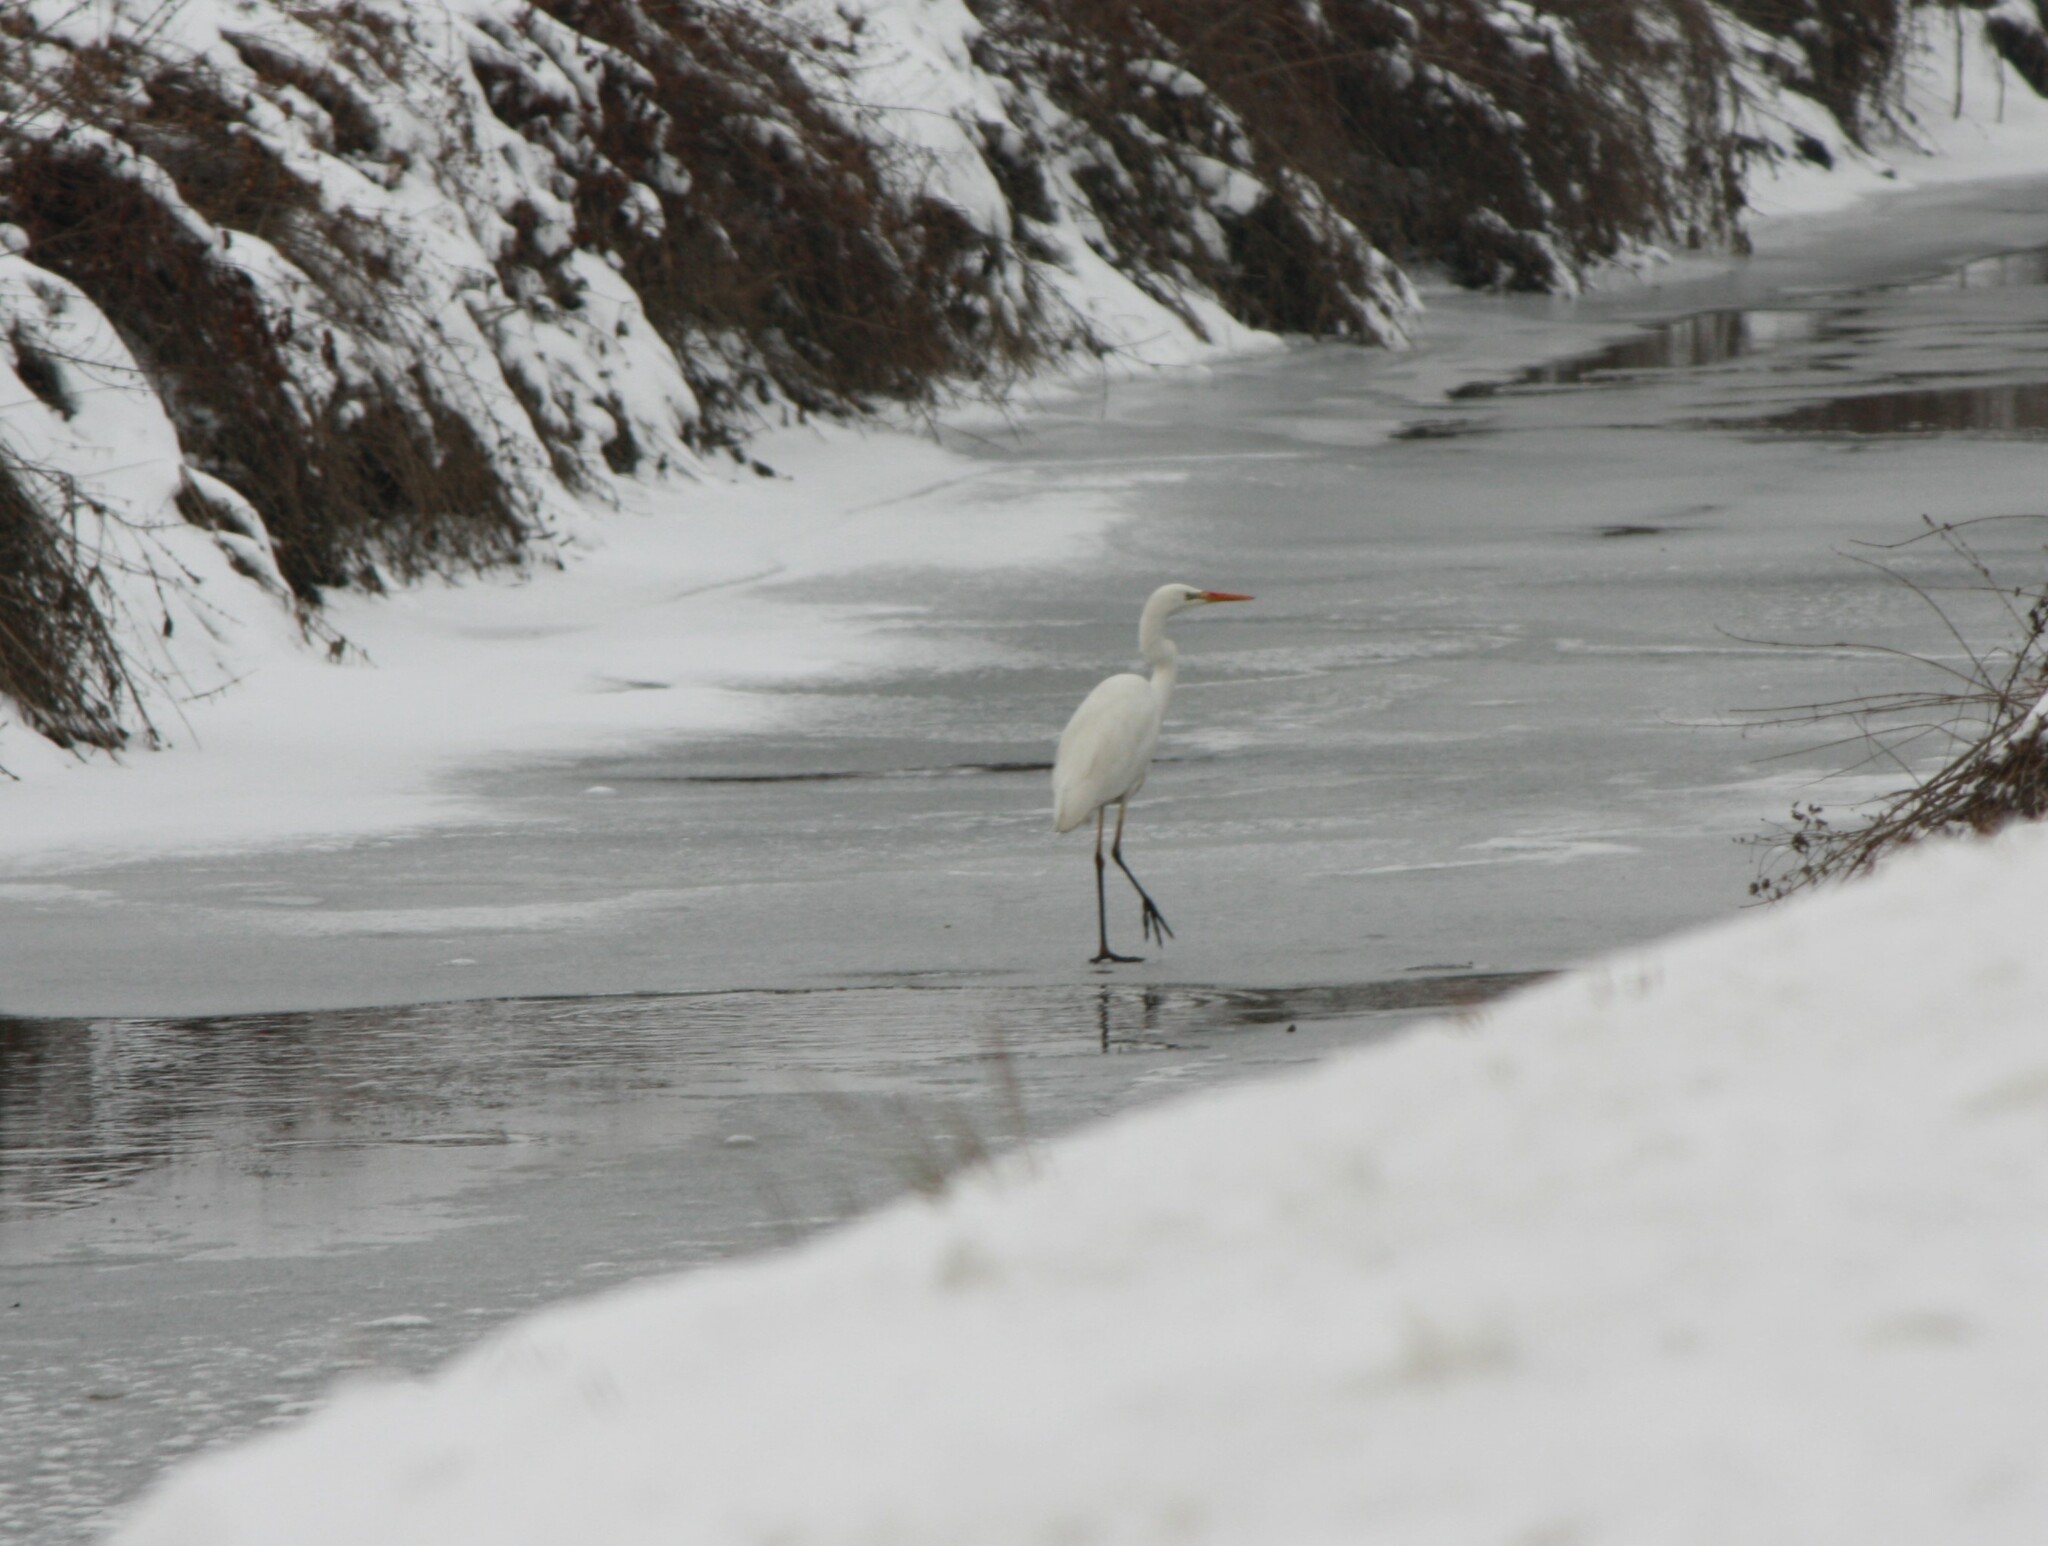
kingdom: Animalia
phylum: Chordata
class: Aves
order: Pelecaniformes
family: Ardeidae
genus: Ardea
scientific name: Ardea alba
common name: Great egret
